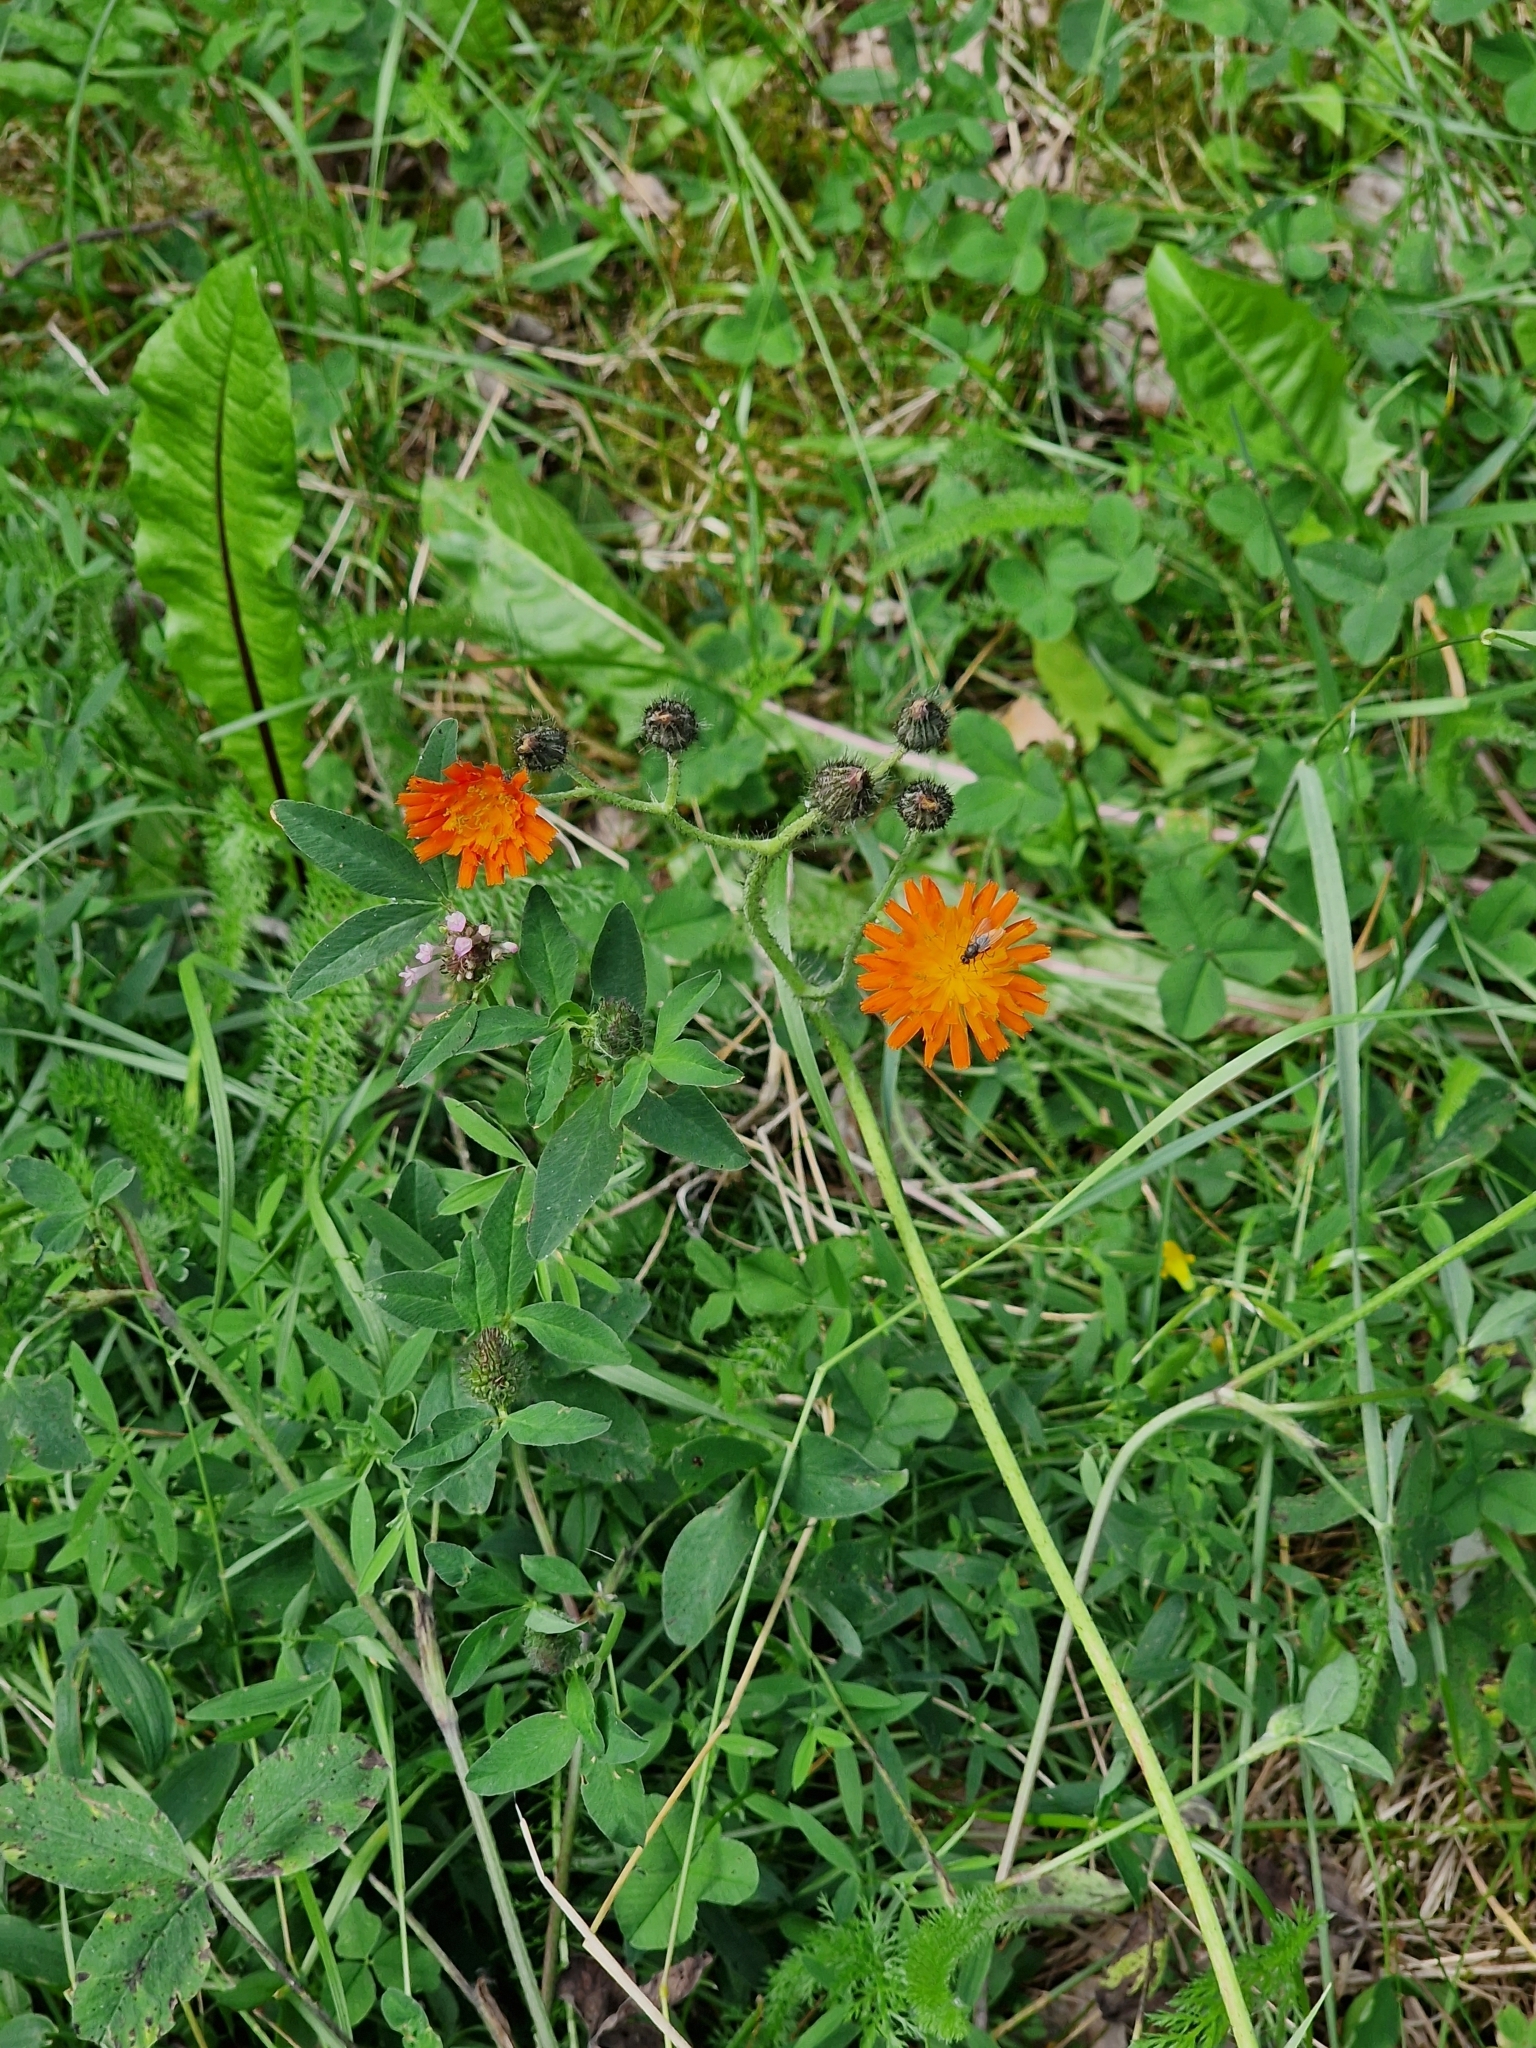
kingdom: Plantae
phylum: Tracheophyta
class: Magnoliopsida
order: Asterales
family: Asteraceae
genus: Pilosella
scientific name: Pilosella aurantiaca
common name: Fox-and-cubs
